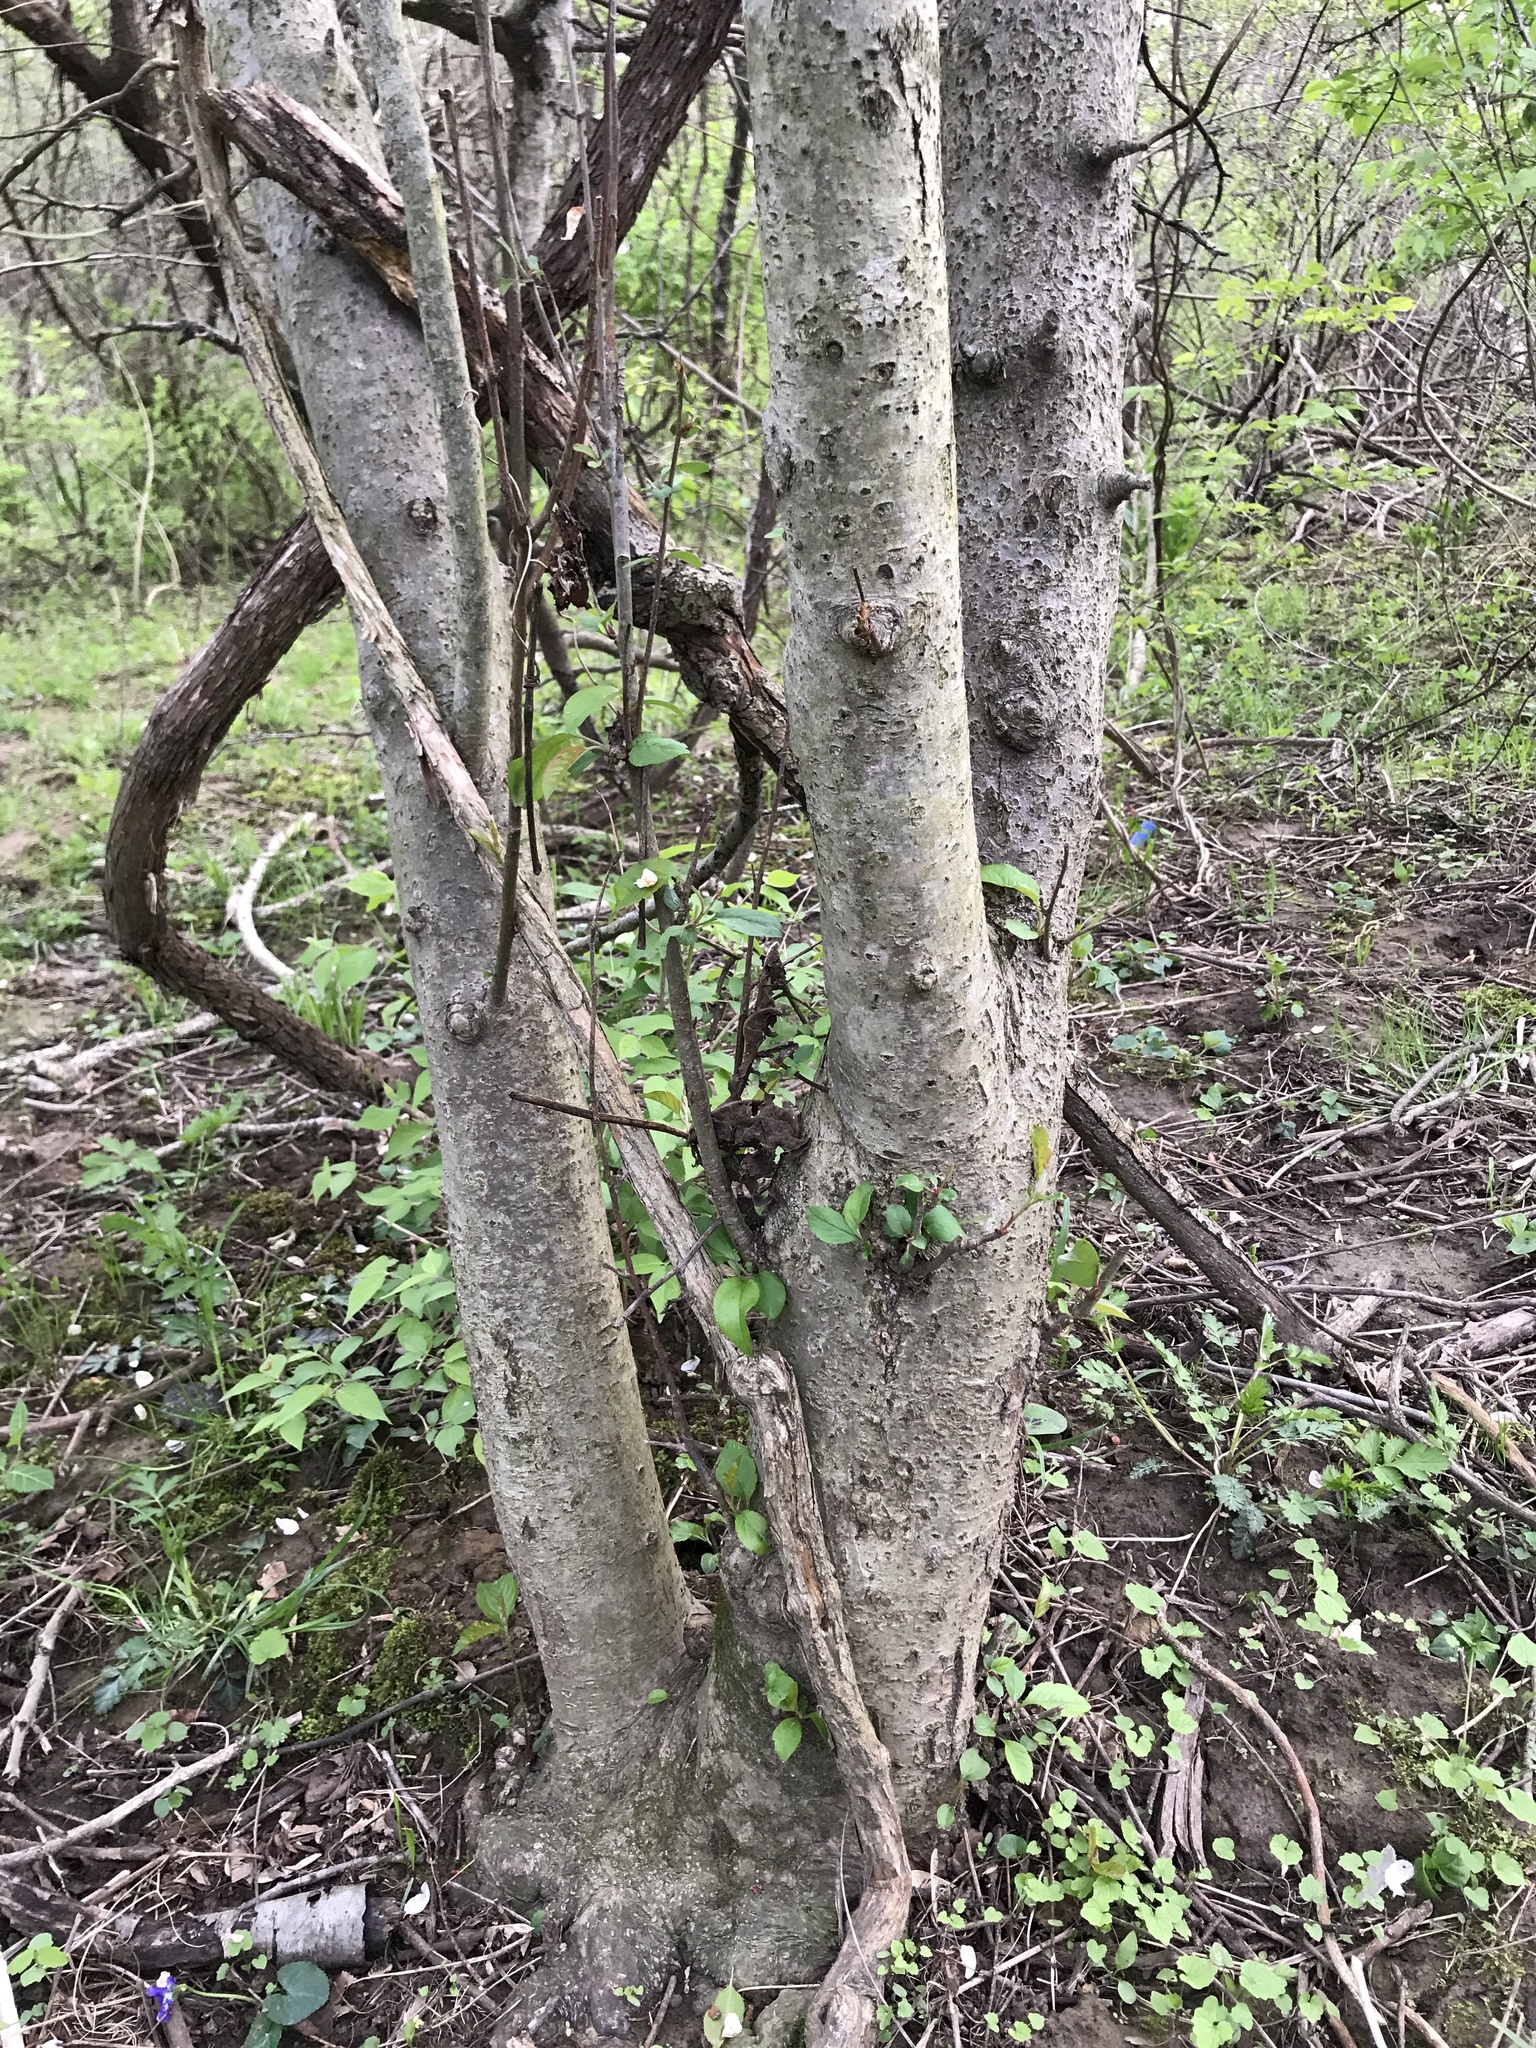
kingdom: Plantae
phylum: Tracheophyta
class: Magnoliopsida
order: Rosales
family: Rosaceae
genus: Malus
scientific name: Malus domestica
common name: Apple
